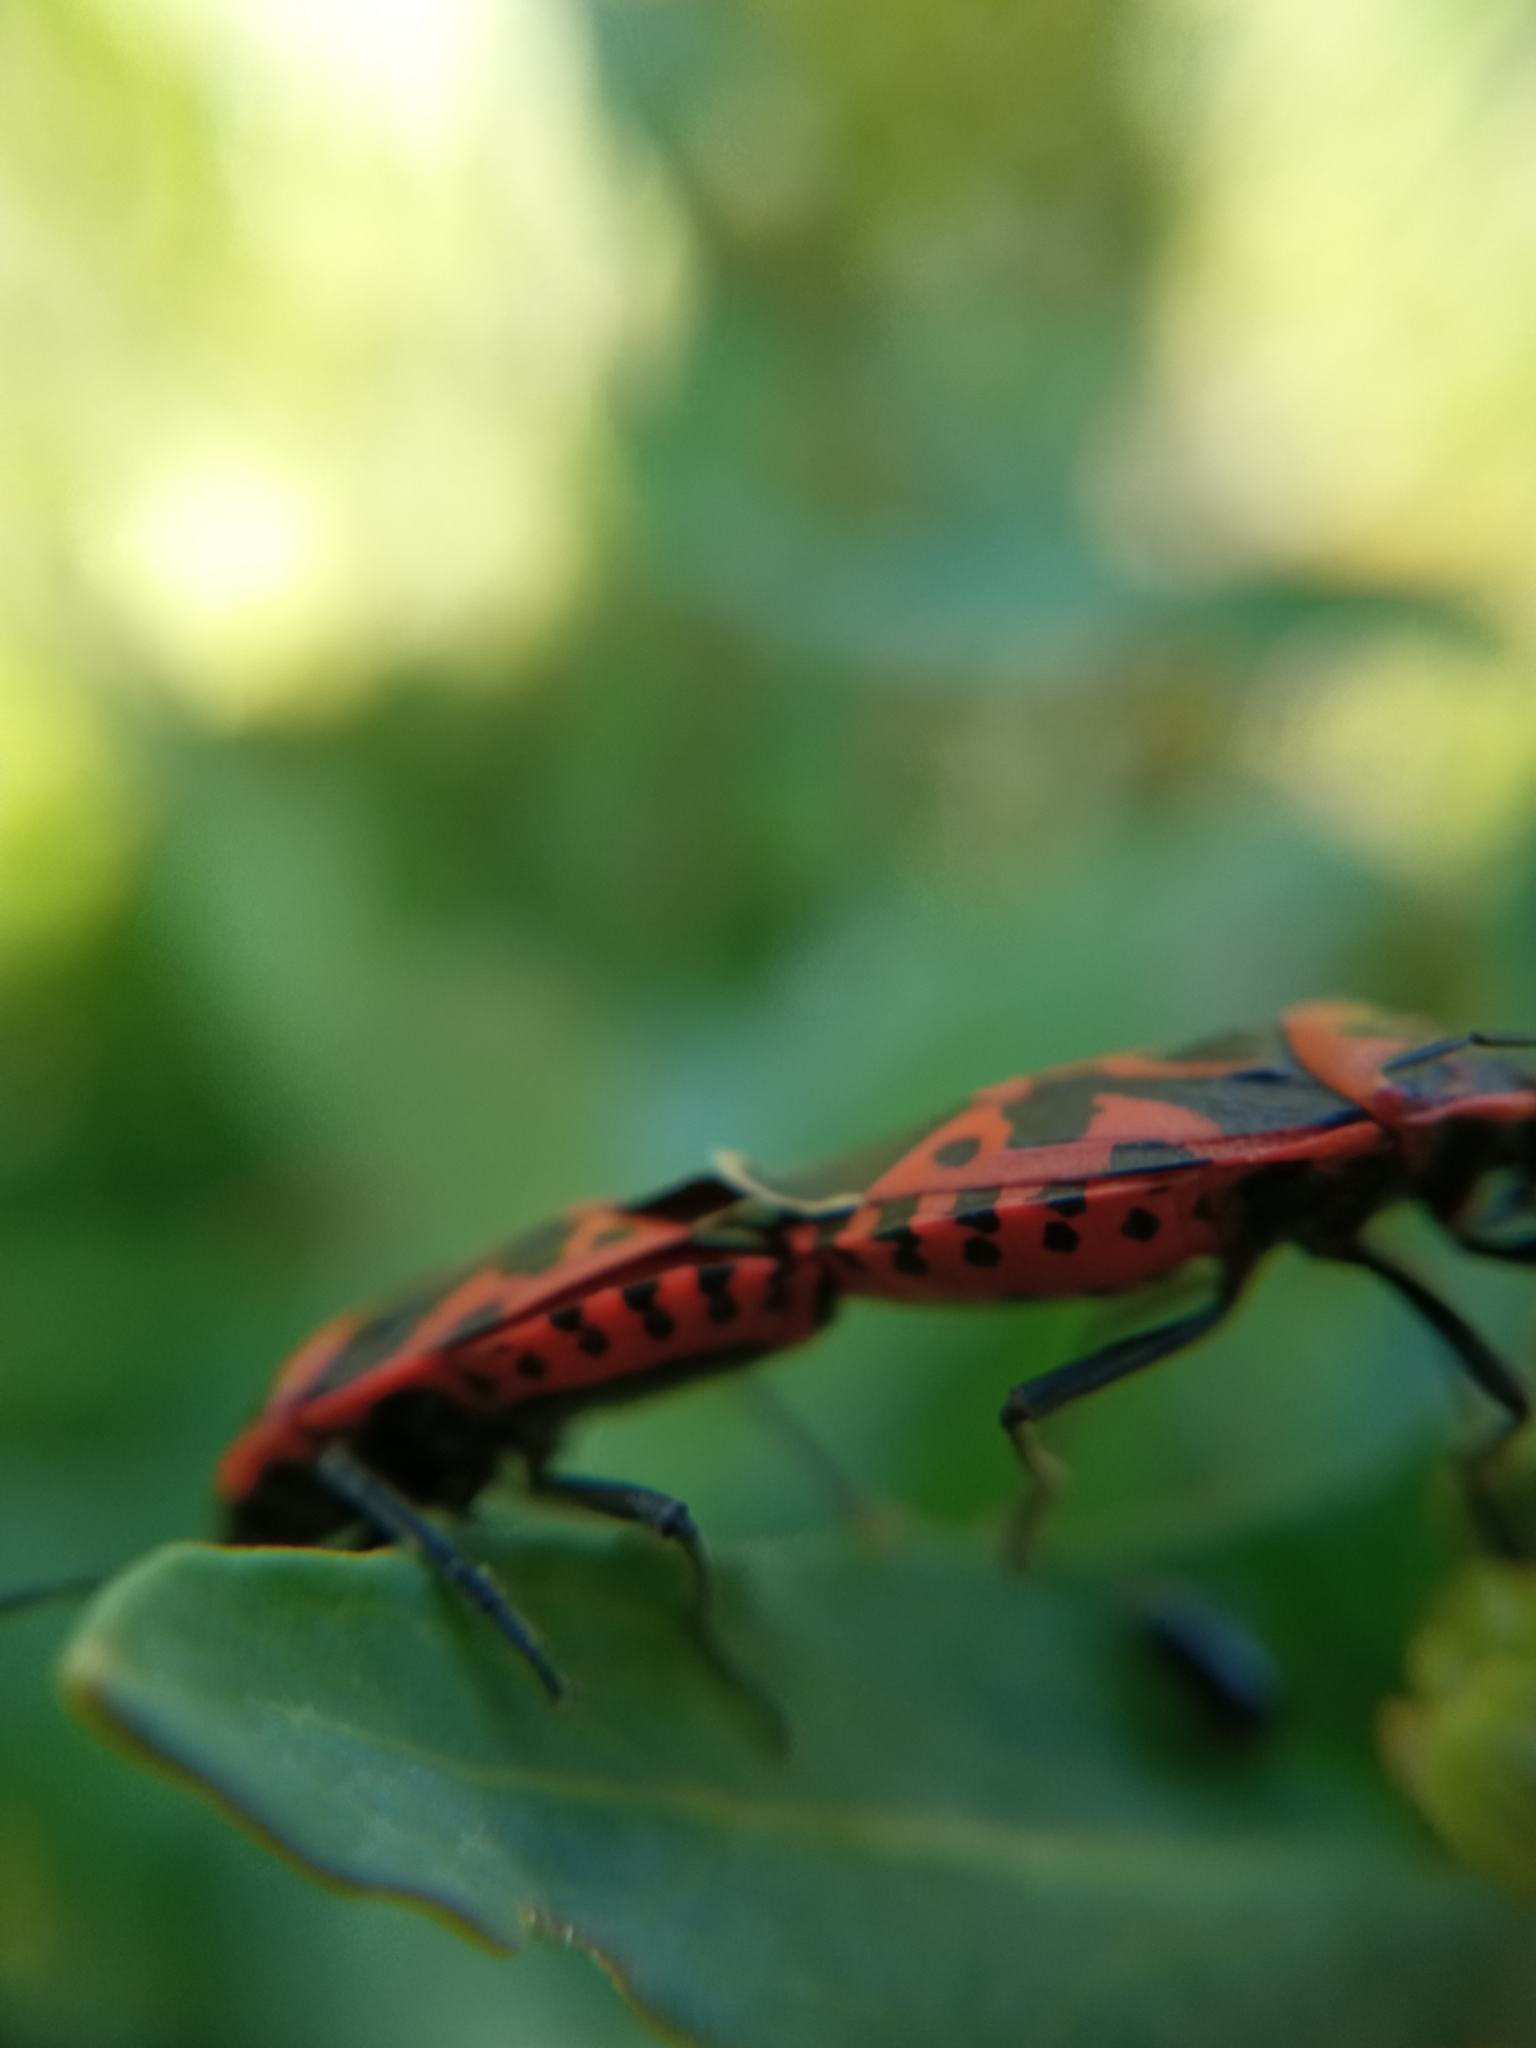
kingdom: Animalia
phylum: Arthropoda
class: Insecta
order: Hemiptera
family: Pentatomidae
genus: Eurydema
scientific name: Eurydema ventralis
